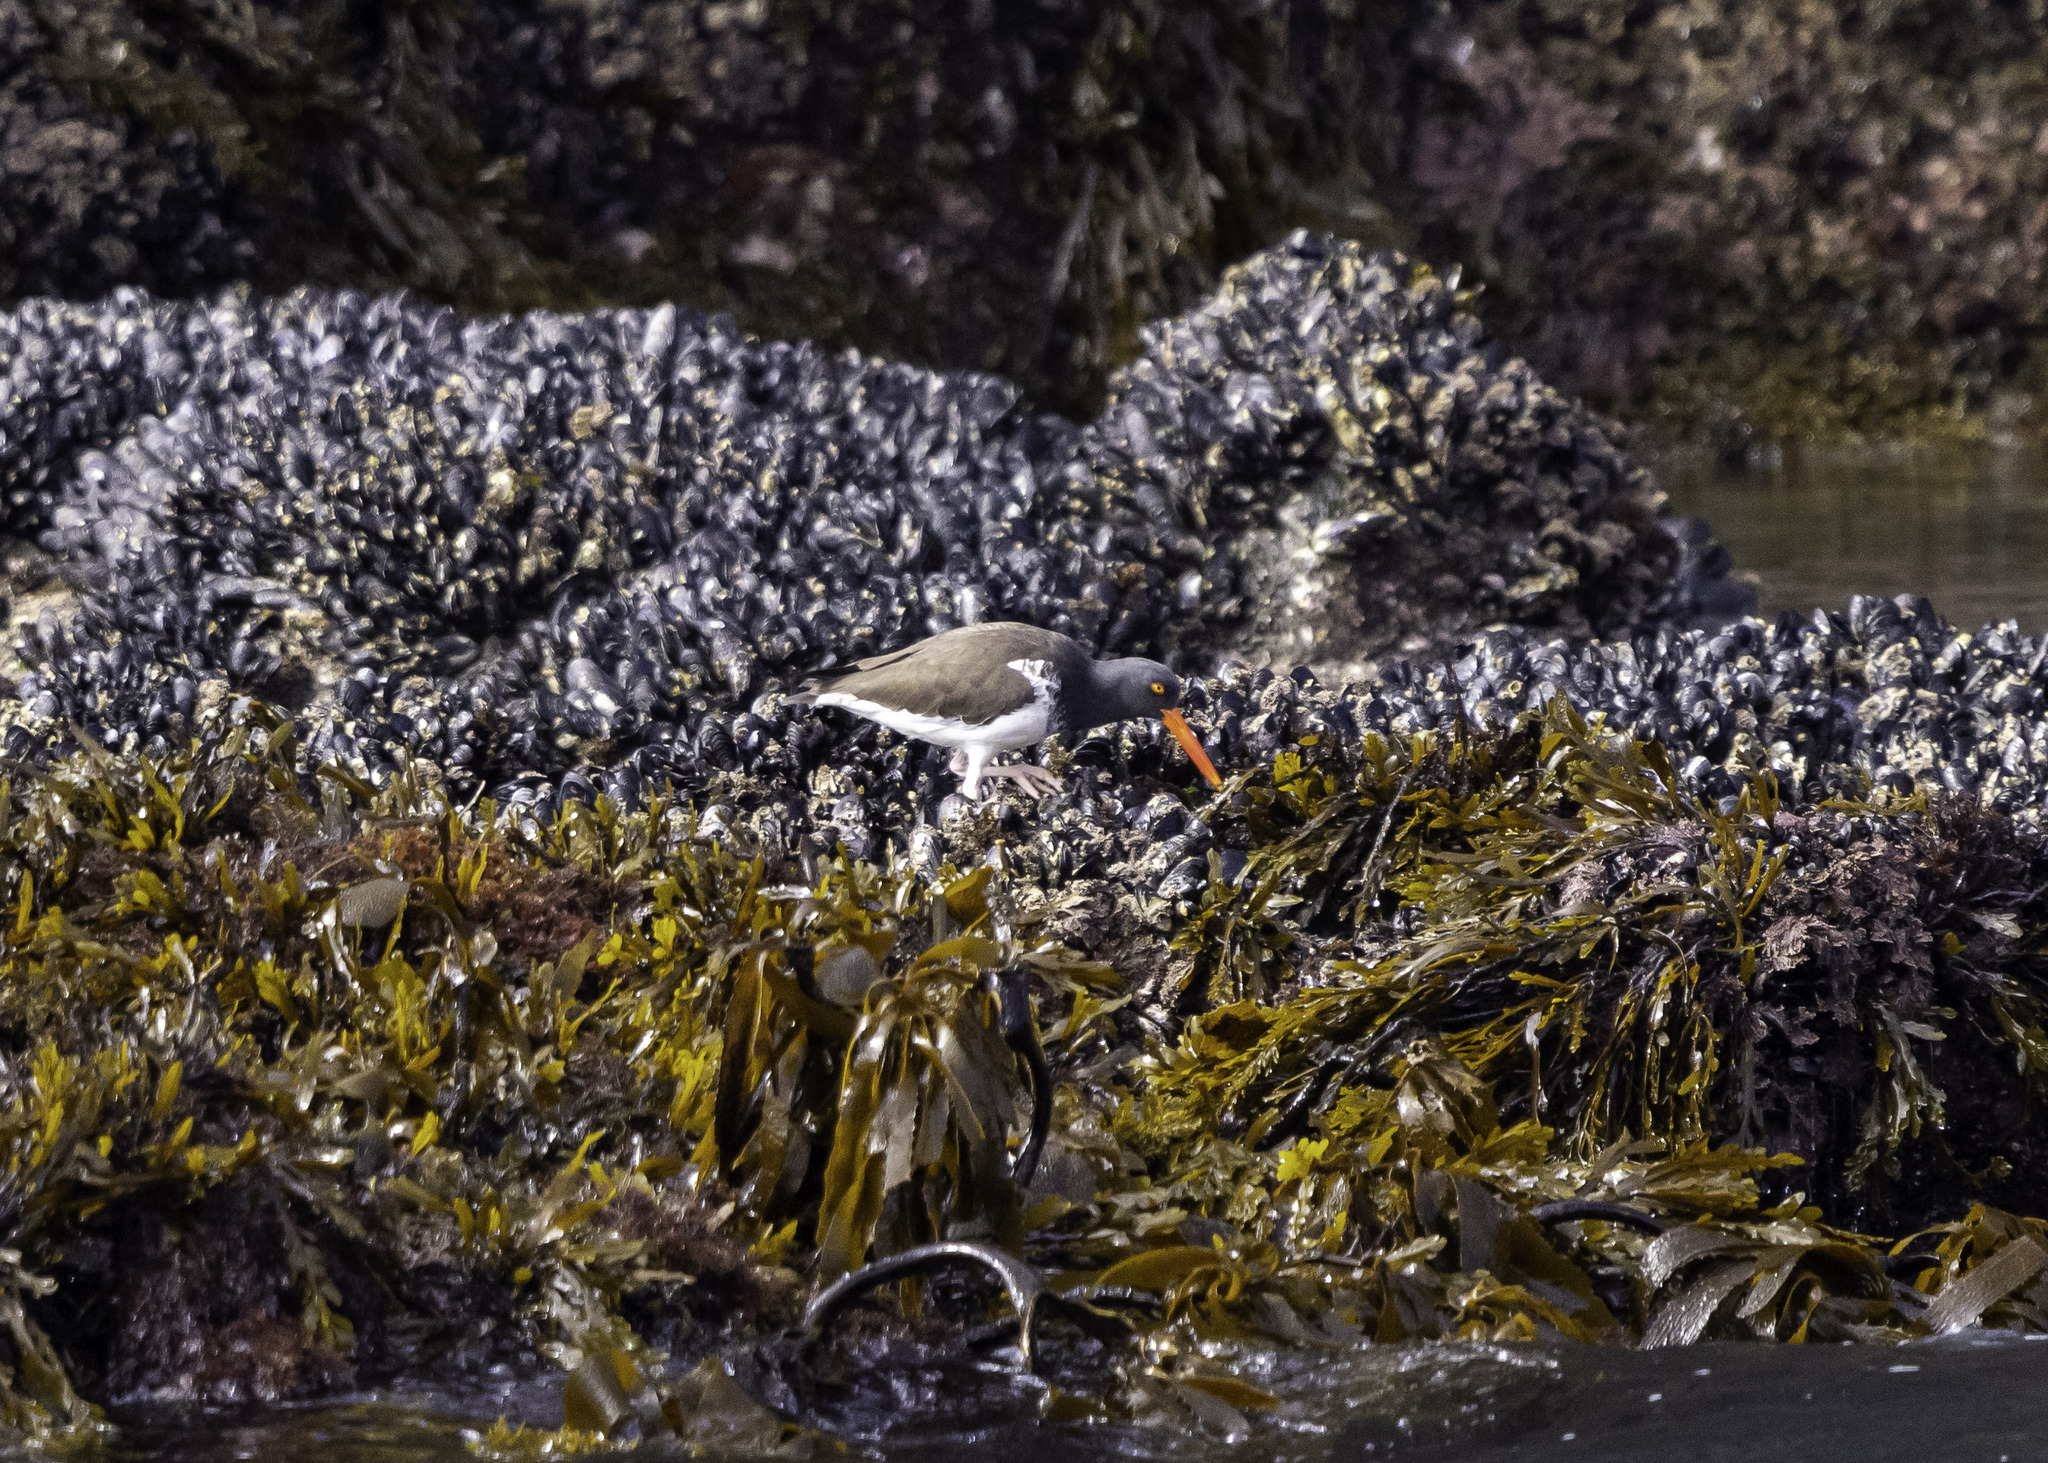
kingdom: Animalia
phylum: Chordata
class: Aves
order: Charadriiformes
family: Haematopodidae
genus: Haematopus
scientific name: Haematopus palliatus
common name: American oystercatcher
